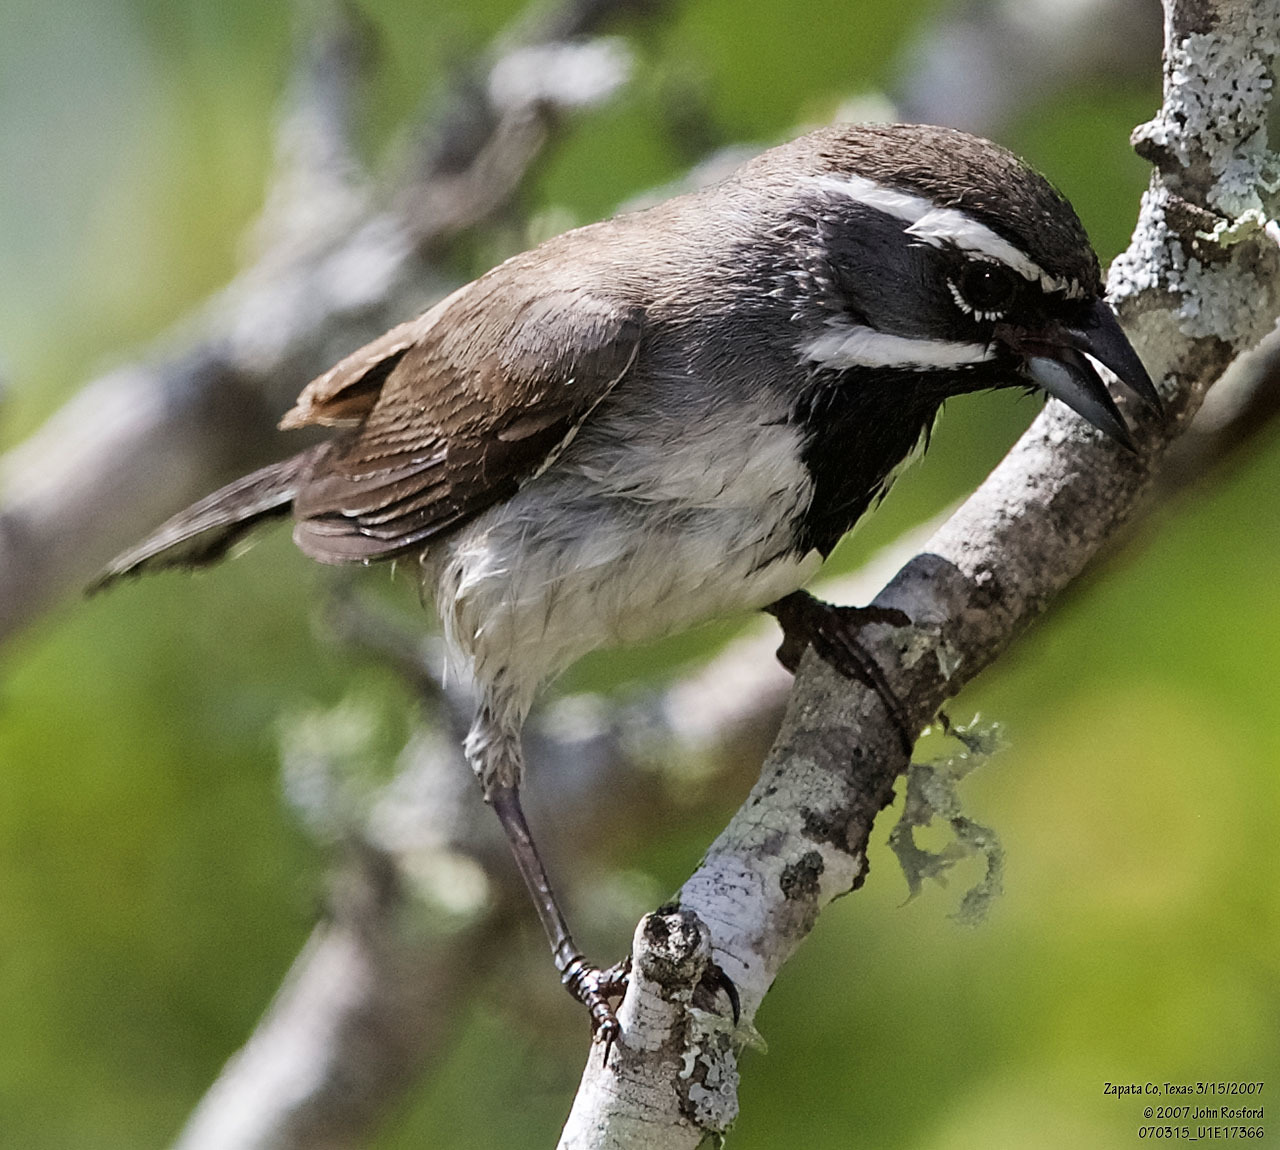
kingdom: Animalia
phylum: Chordata
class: Aves
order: Passeriformes
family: Passerellidae
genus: Amphispiza
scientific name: Amphispiza bilineata
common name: Black-throated sparrow
